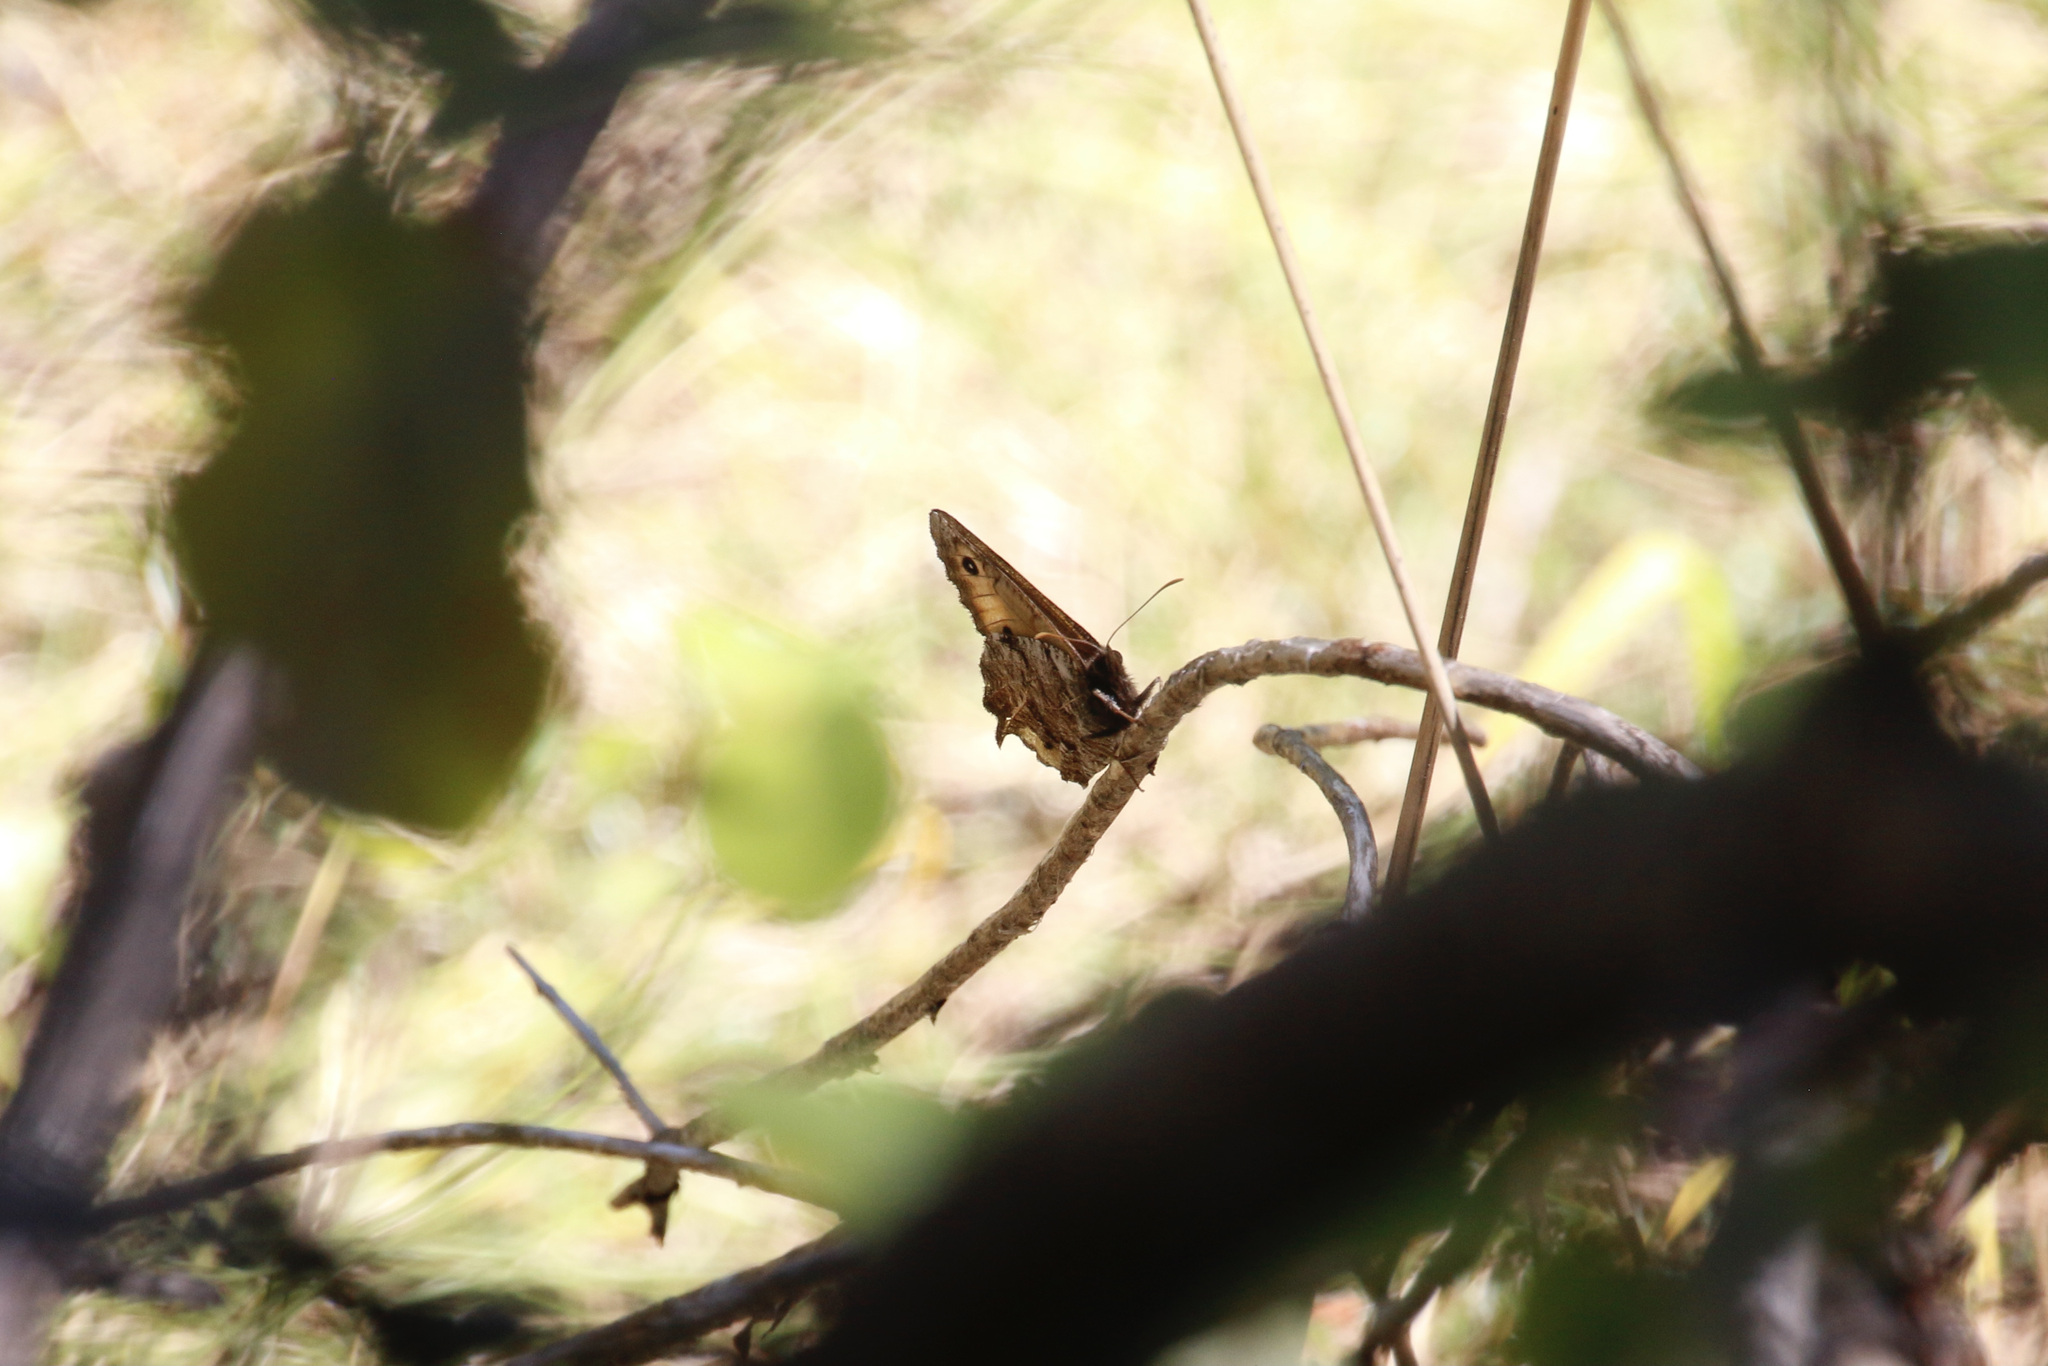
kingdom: Animalia
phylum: Arthropoda
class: Insecta
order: Lepidoptera
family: Nymphalidae
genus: Oeneis
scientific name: Oeneis nevadensis
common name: Great arctic
